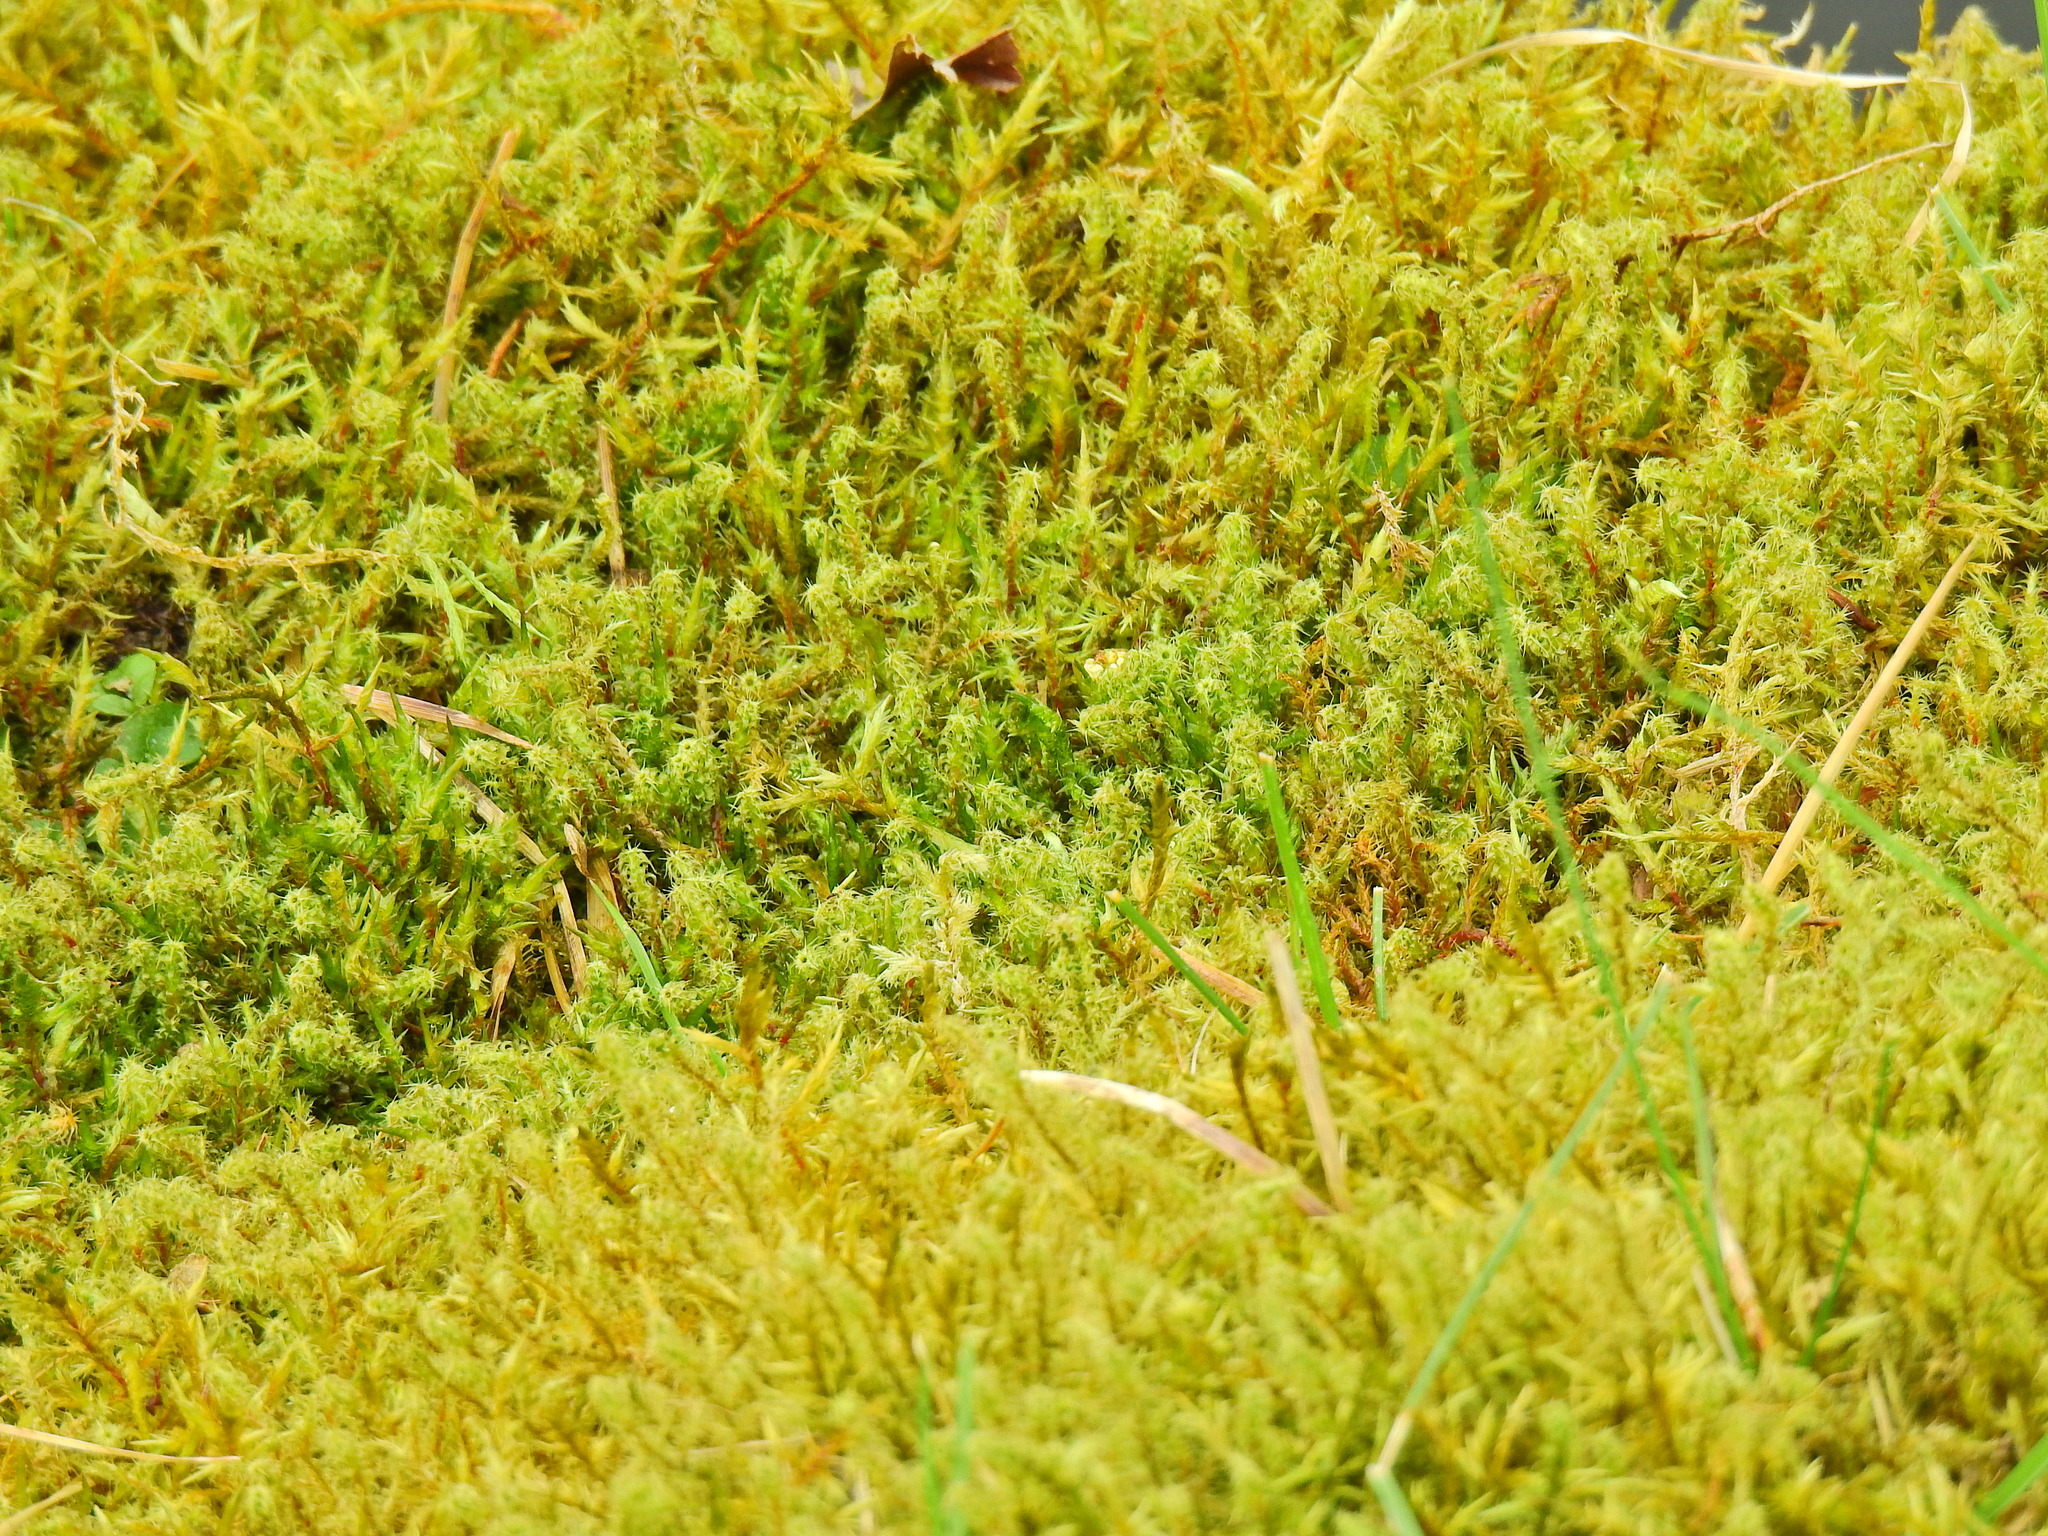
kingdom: Plantae
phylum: Bryophyta
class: Bryopsida
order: Hypnales
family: Hylocomiaceae
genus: Rhytidiadelphus
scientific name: Rhytidiadelphus squarrosus
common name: Springy turf-moss
